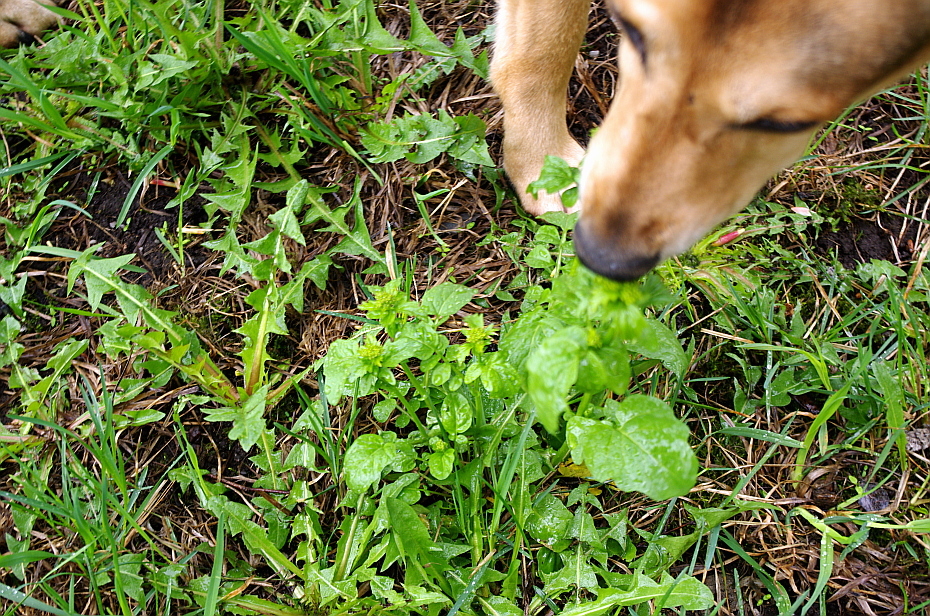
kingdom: Plantae
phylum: Tracheophyta
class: Magnoliopsida
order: Asterales
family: Asteraceae
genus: Taraxacum
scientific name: Taraxacum officinale
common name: Common dandelion
